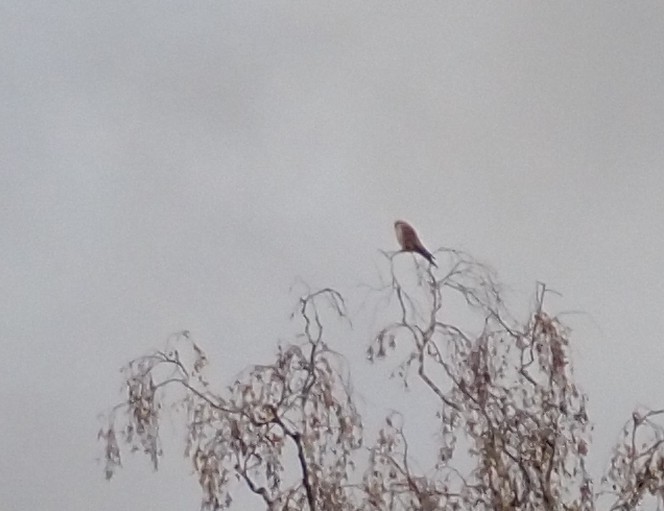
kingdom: Animalia
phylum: Chordata
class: Aves
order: Falconiformes
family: Falconidae
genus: Falco
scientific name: Falco tinnunculus
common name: Common kestrel
